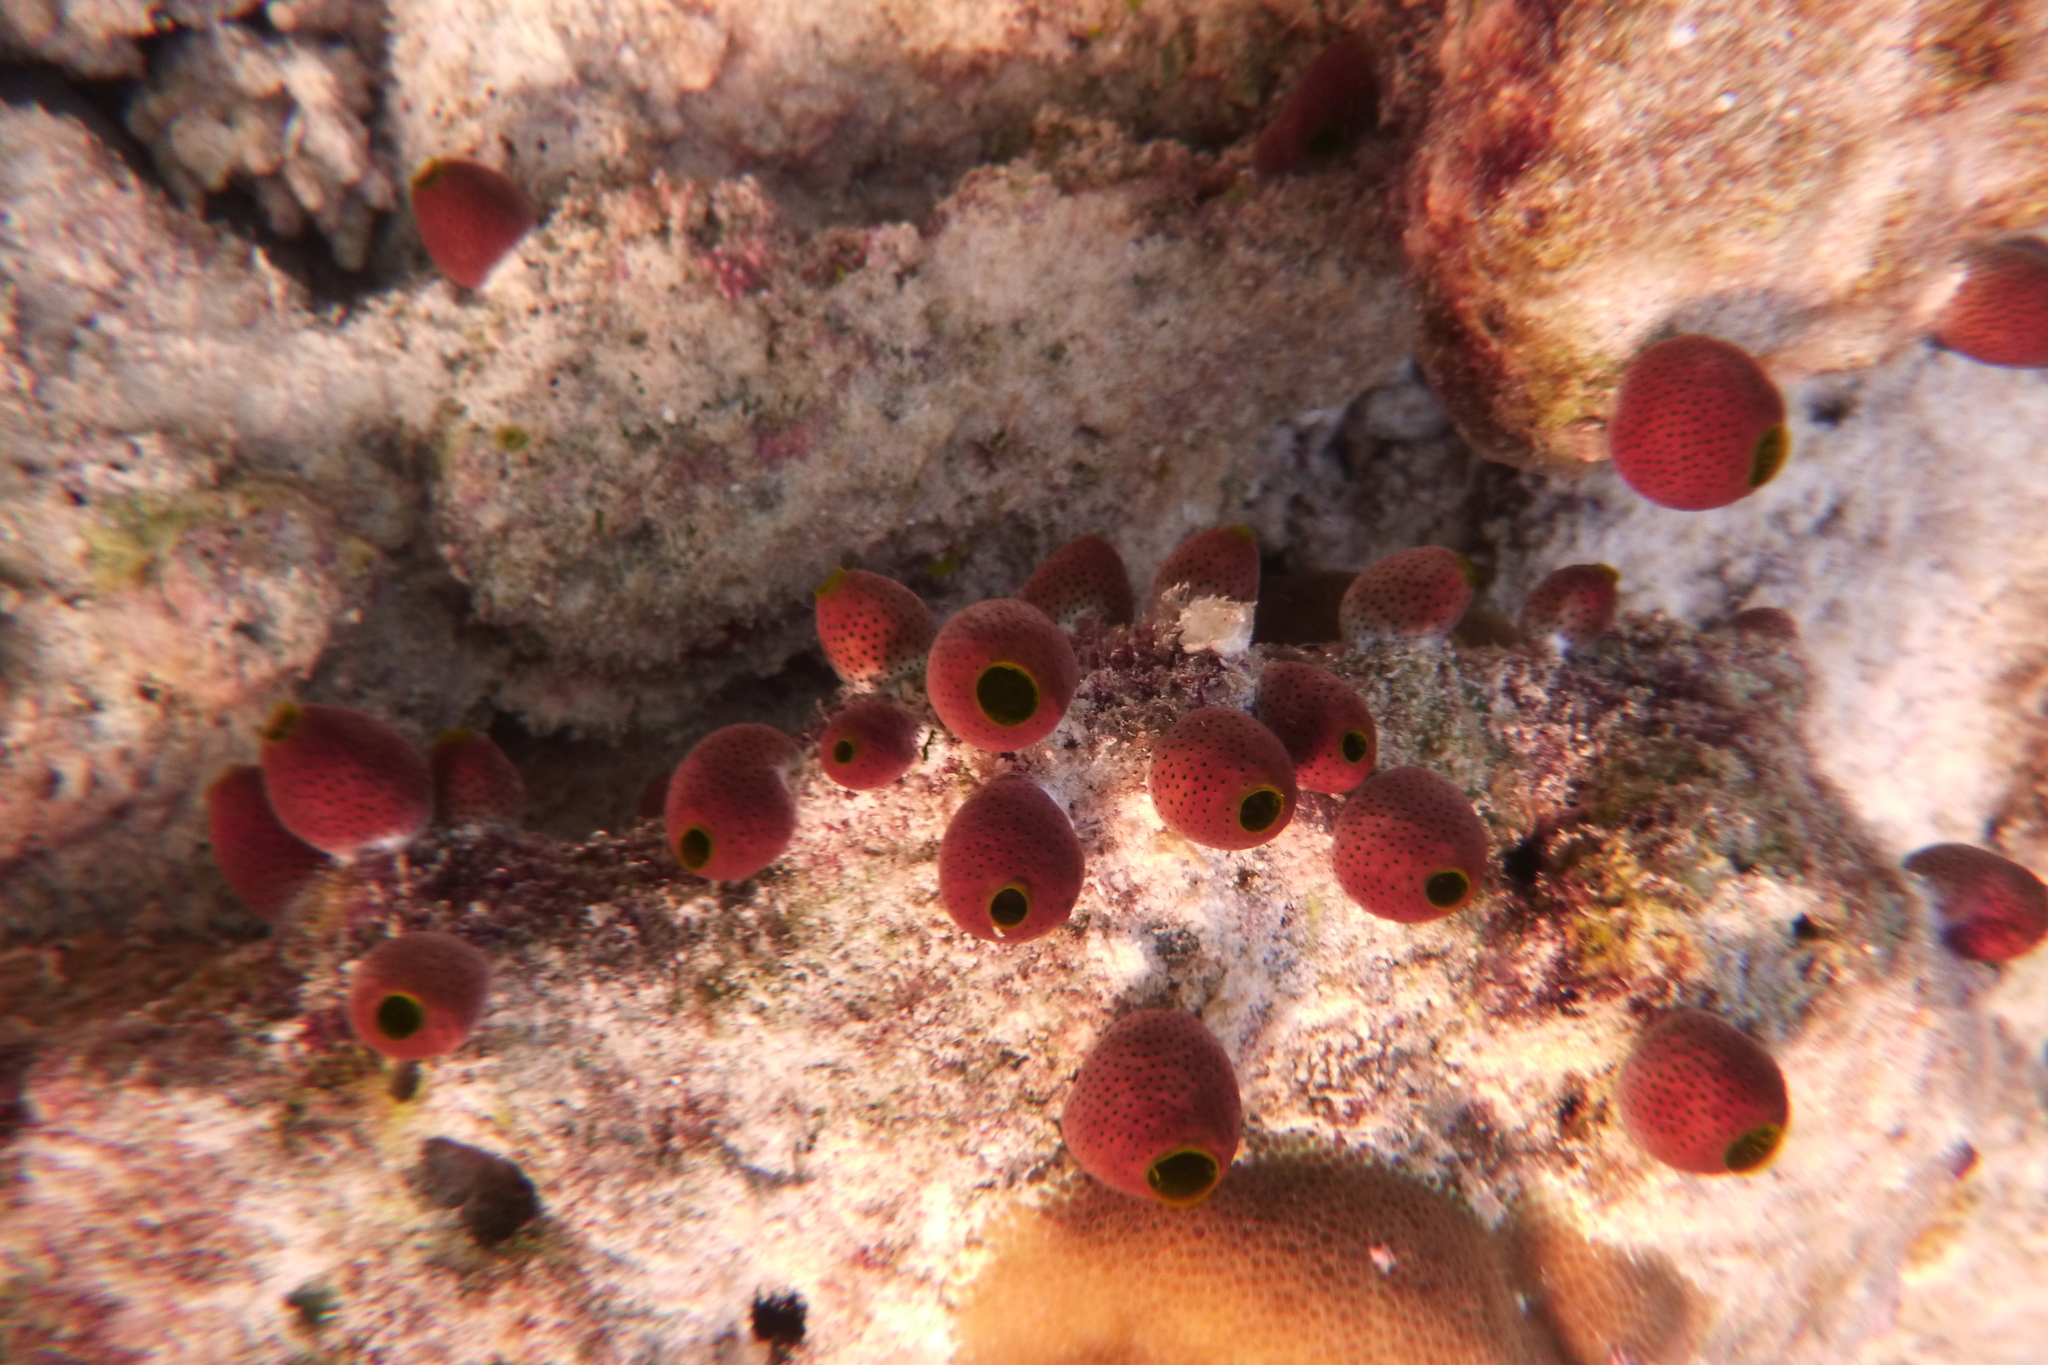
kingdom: Animalia
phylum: Chordata
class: Ascidiacea
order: Aplousobranchia
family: Didemnidae
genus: Didemnum
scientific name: Didemnum molle
